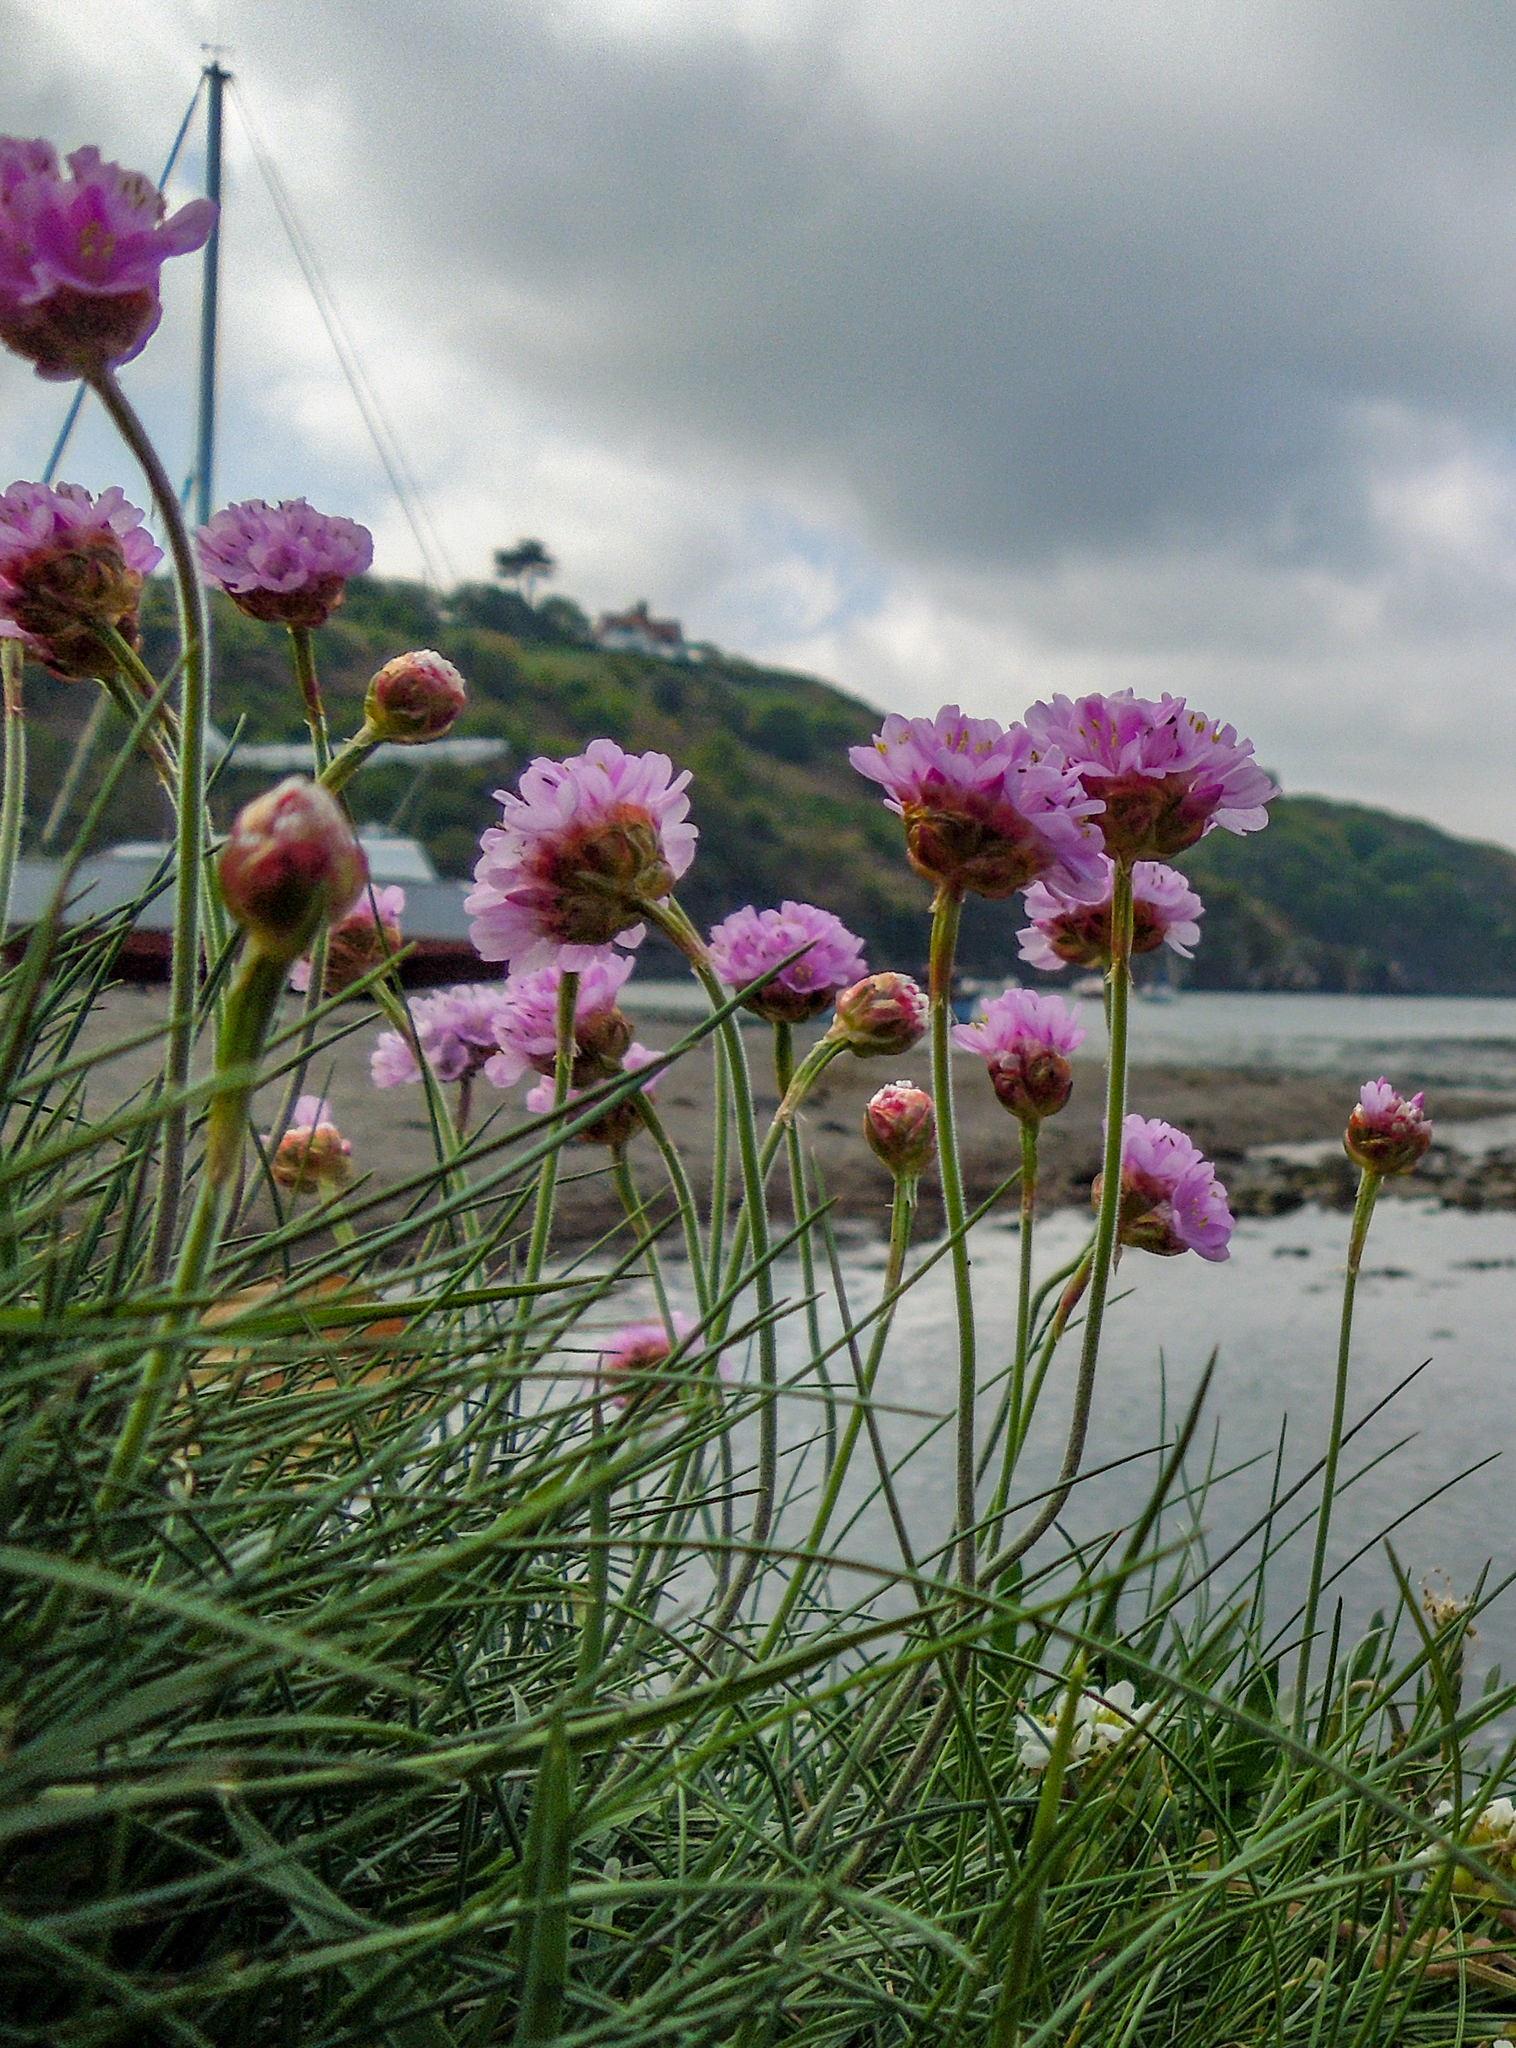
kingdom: Plantae
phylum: Tracheophyta
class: Magnoliopsida
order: Caryophyllales
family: Plumbaginaceae
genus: Armeria
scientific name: Armeria maritima
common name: Thrift
